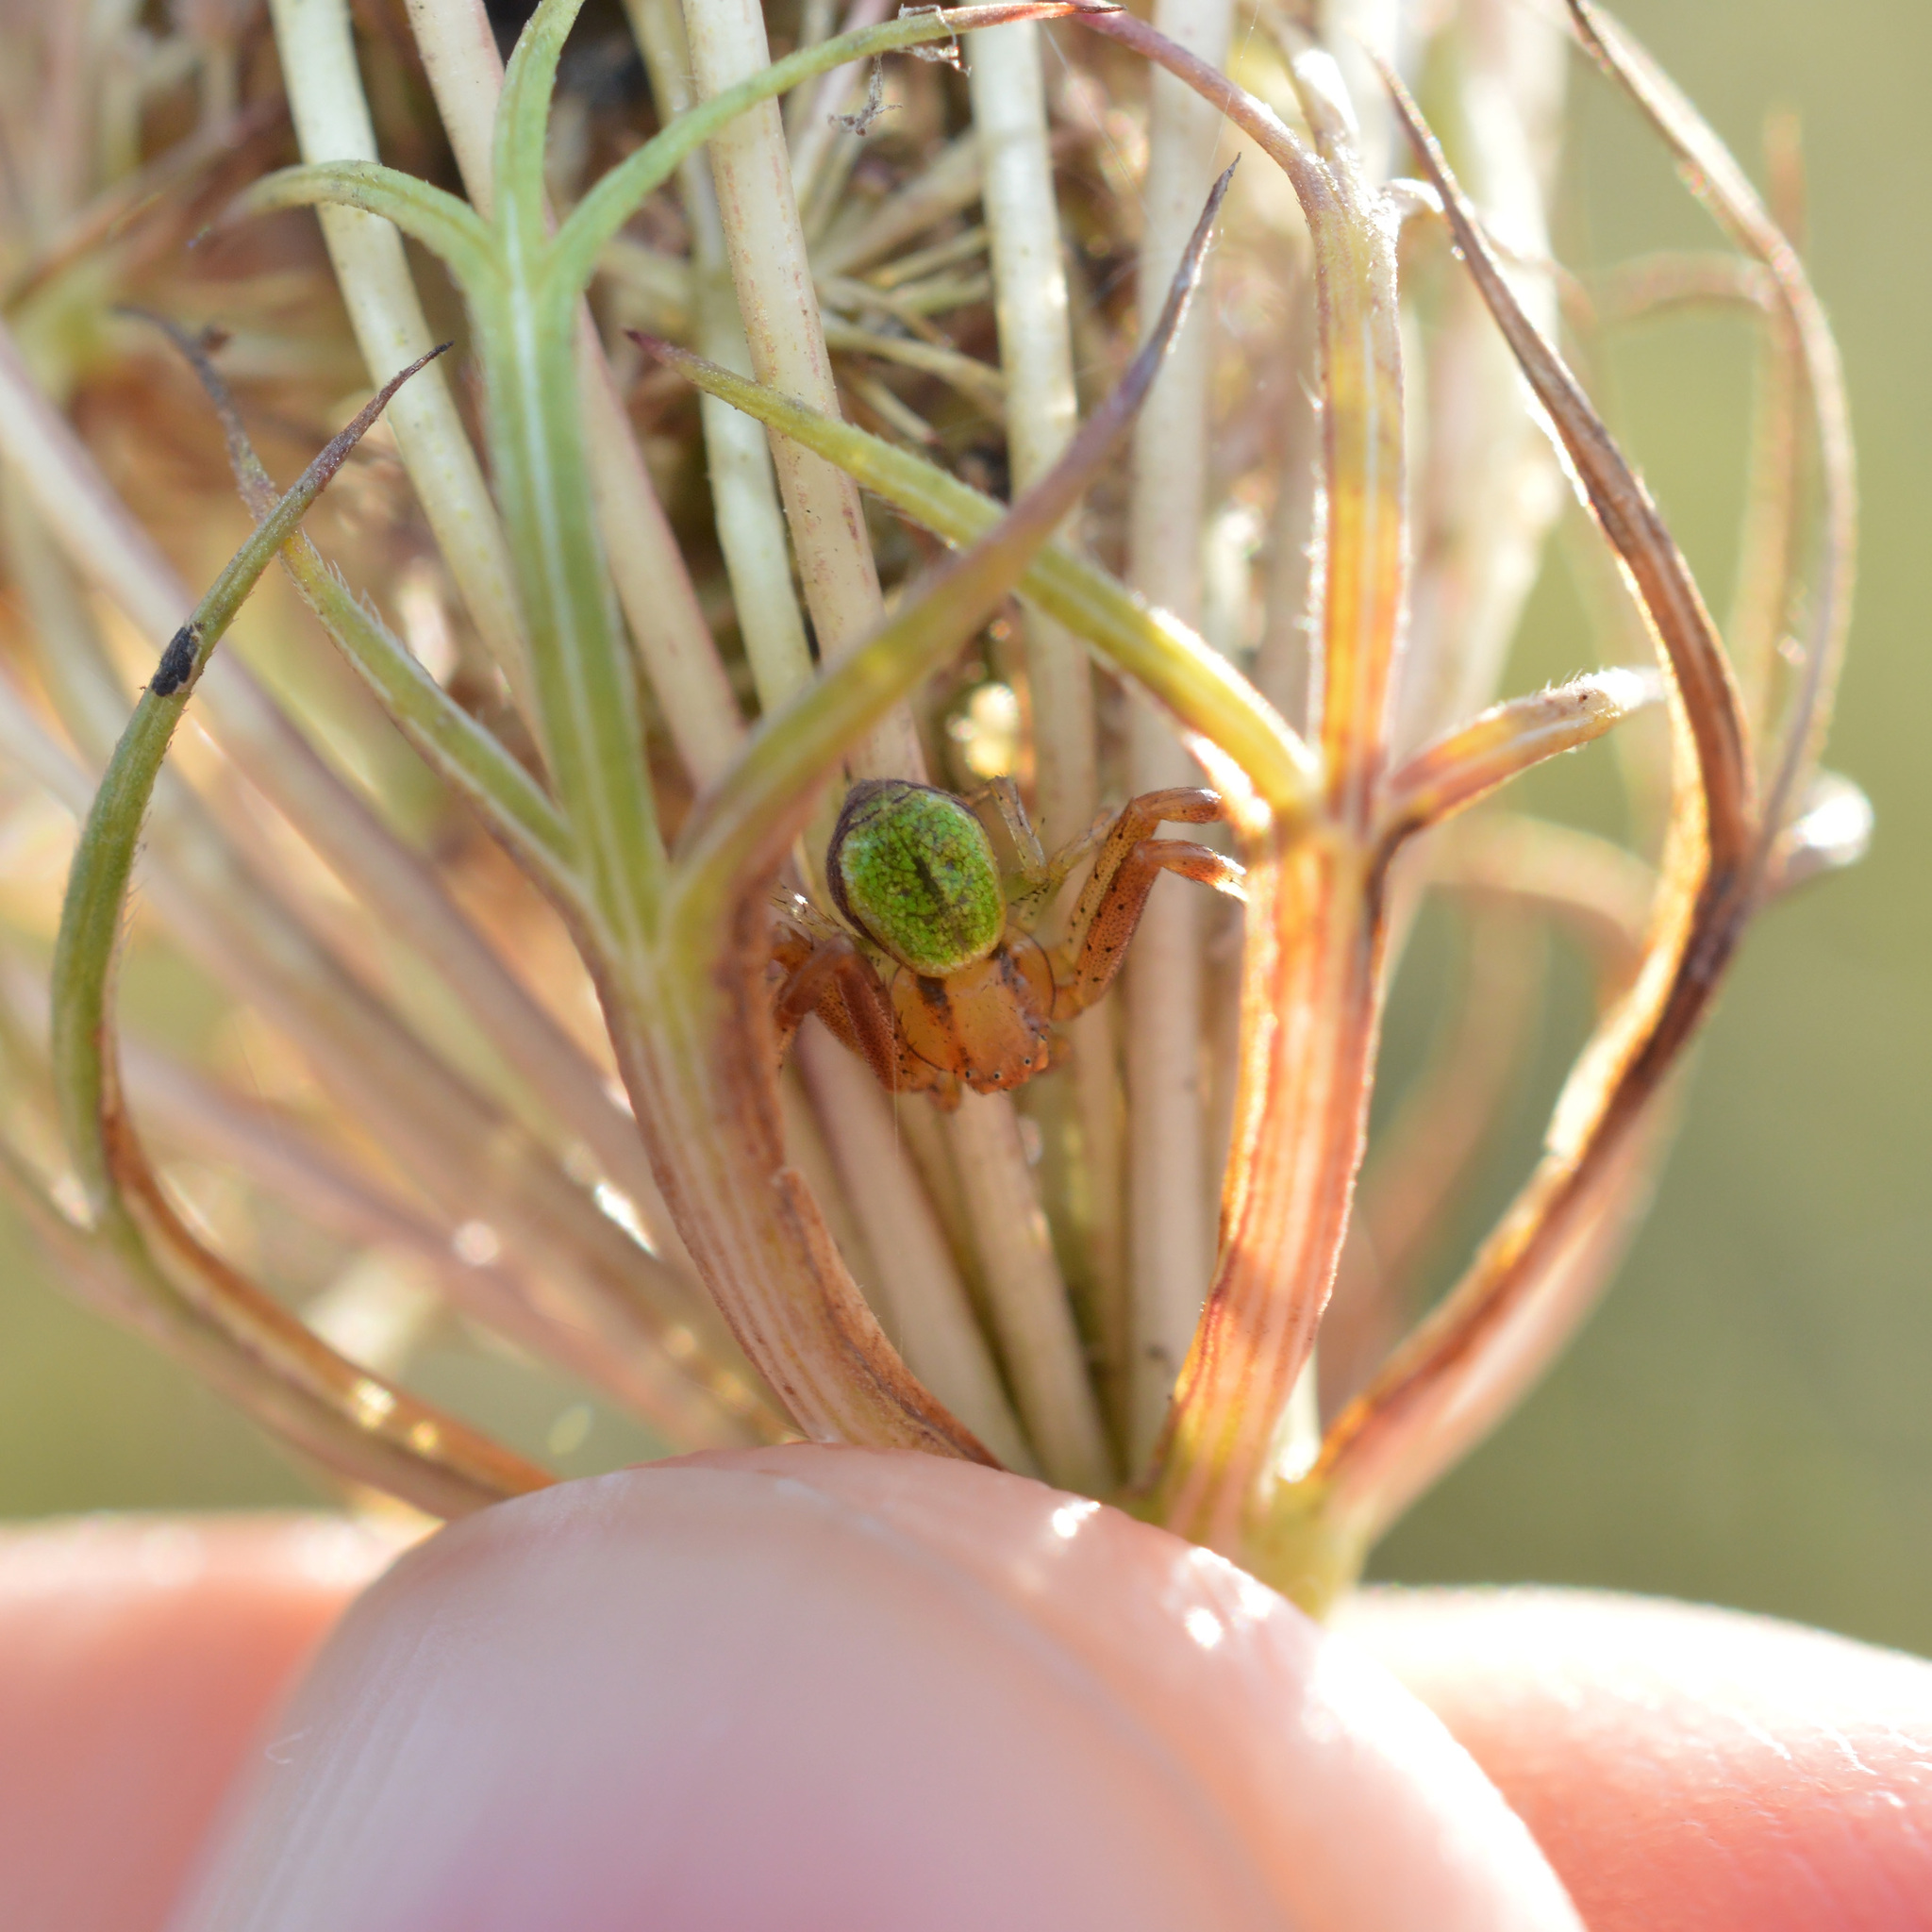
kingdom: Animalia
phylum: Arthropoda
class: Arachnida
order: Araneae
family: Thomisidae
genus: Ebrechtella
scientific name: Ebrechtella tricuspidata
